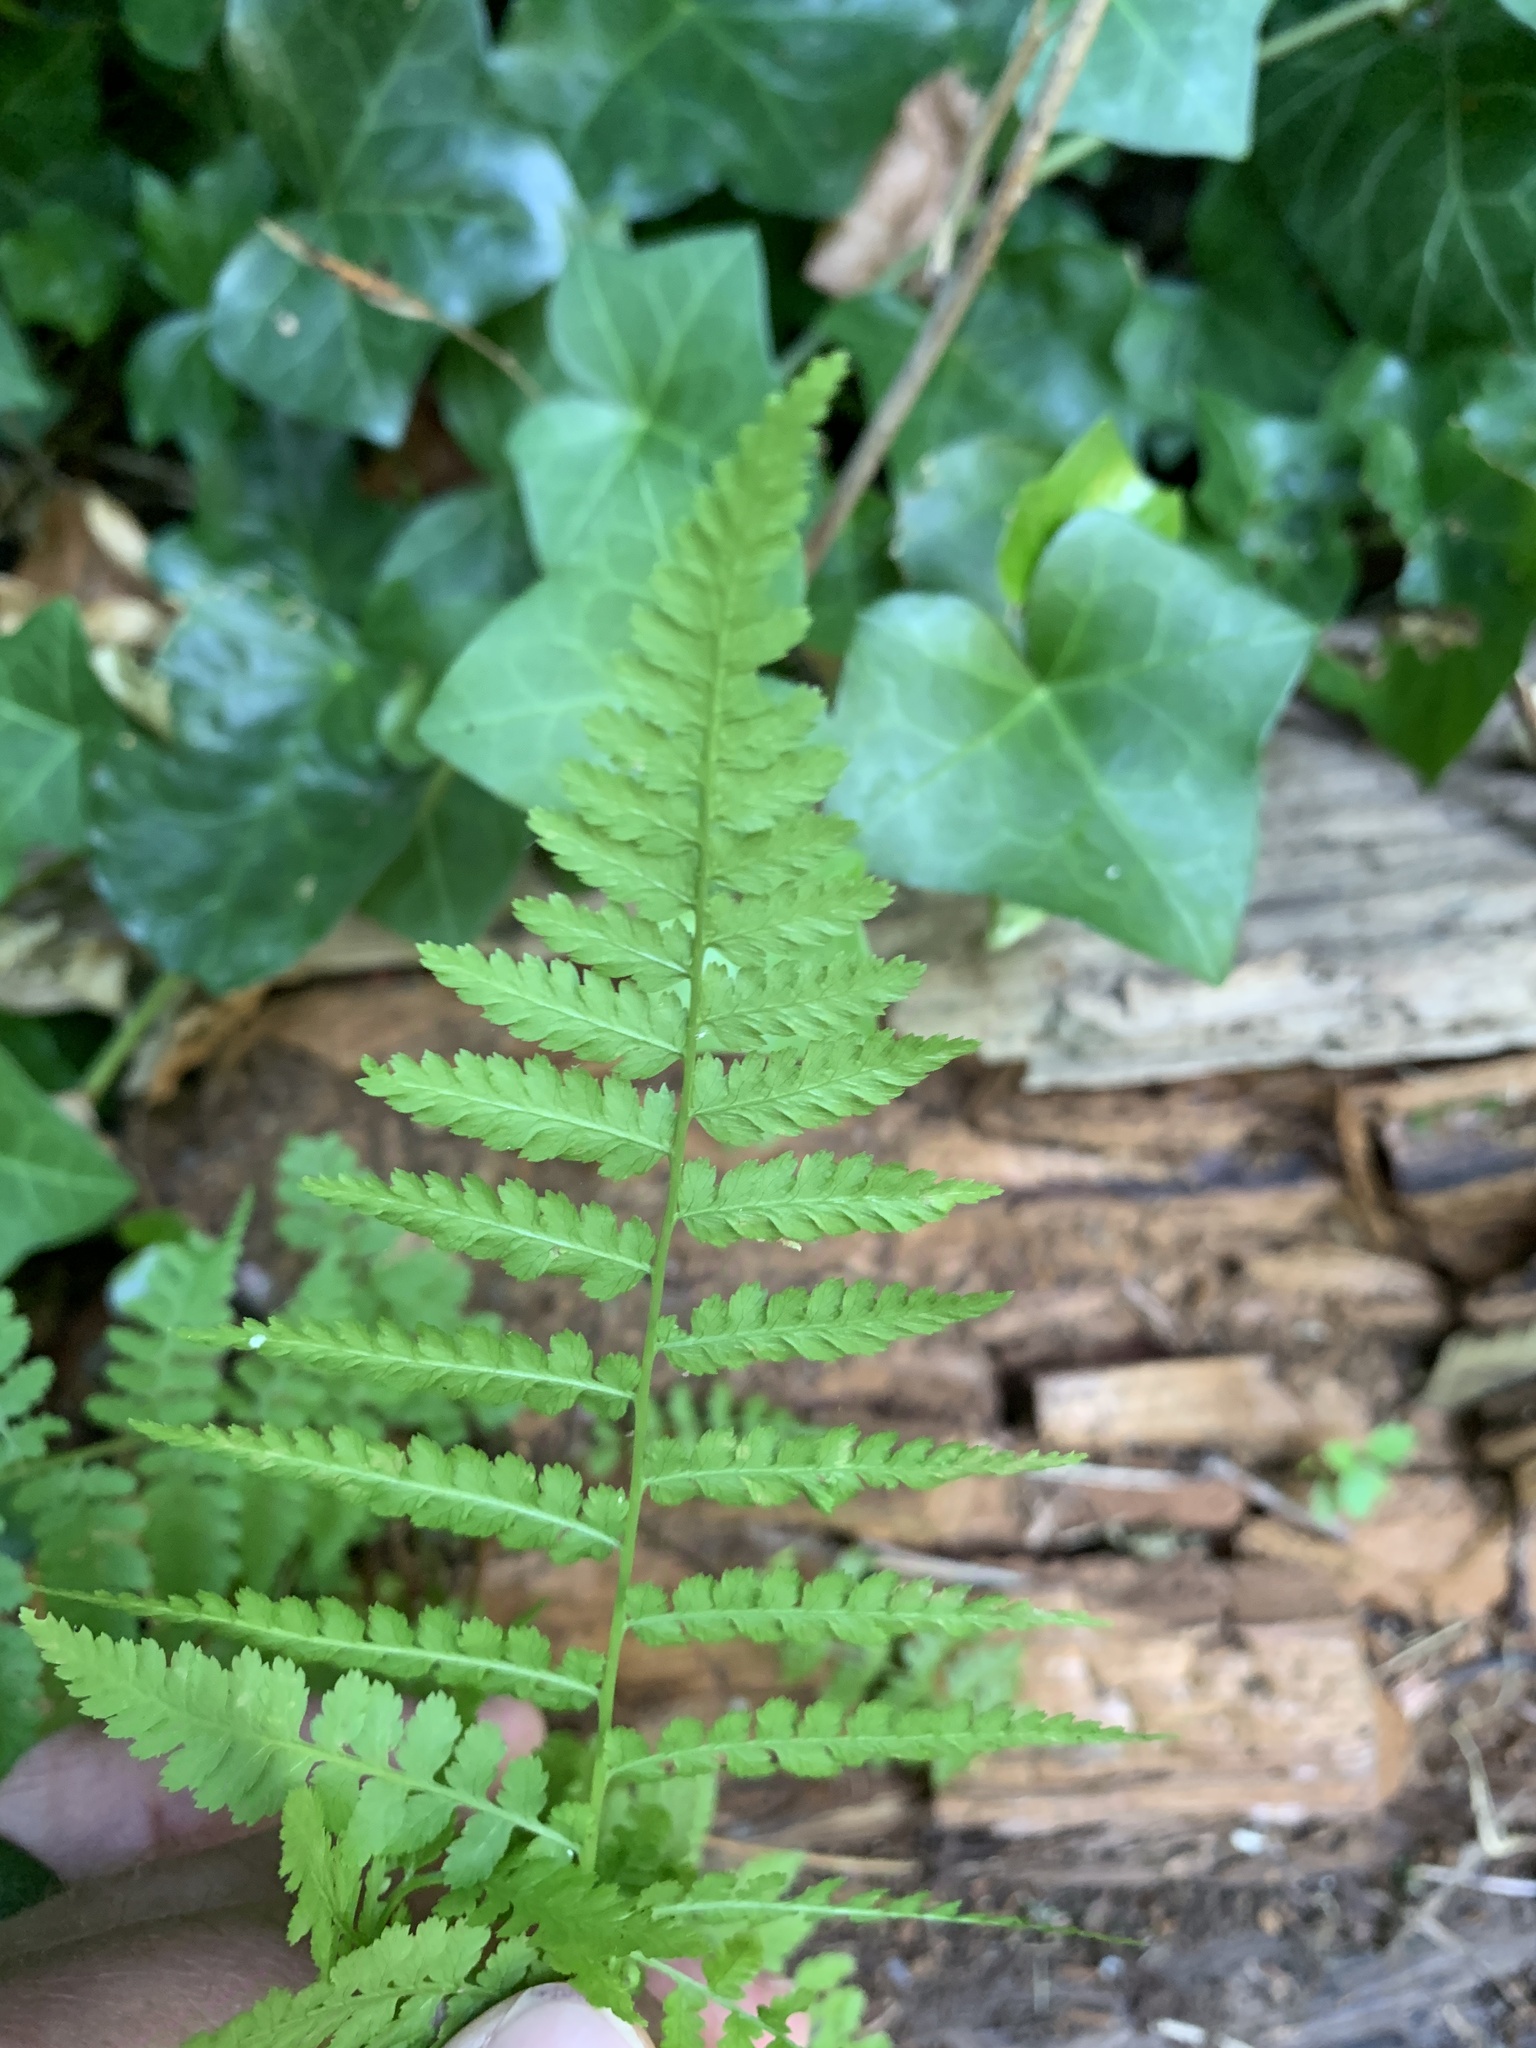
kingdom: Plantae
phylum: Tracheophyta
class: Polypodiopsida
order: Polypodiales
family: Athyriaceae
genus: Athyrium
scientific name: Athyrium cyclosorum
